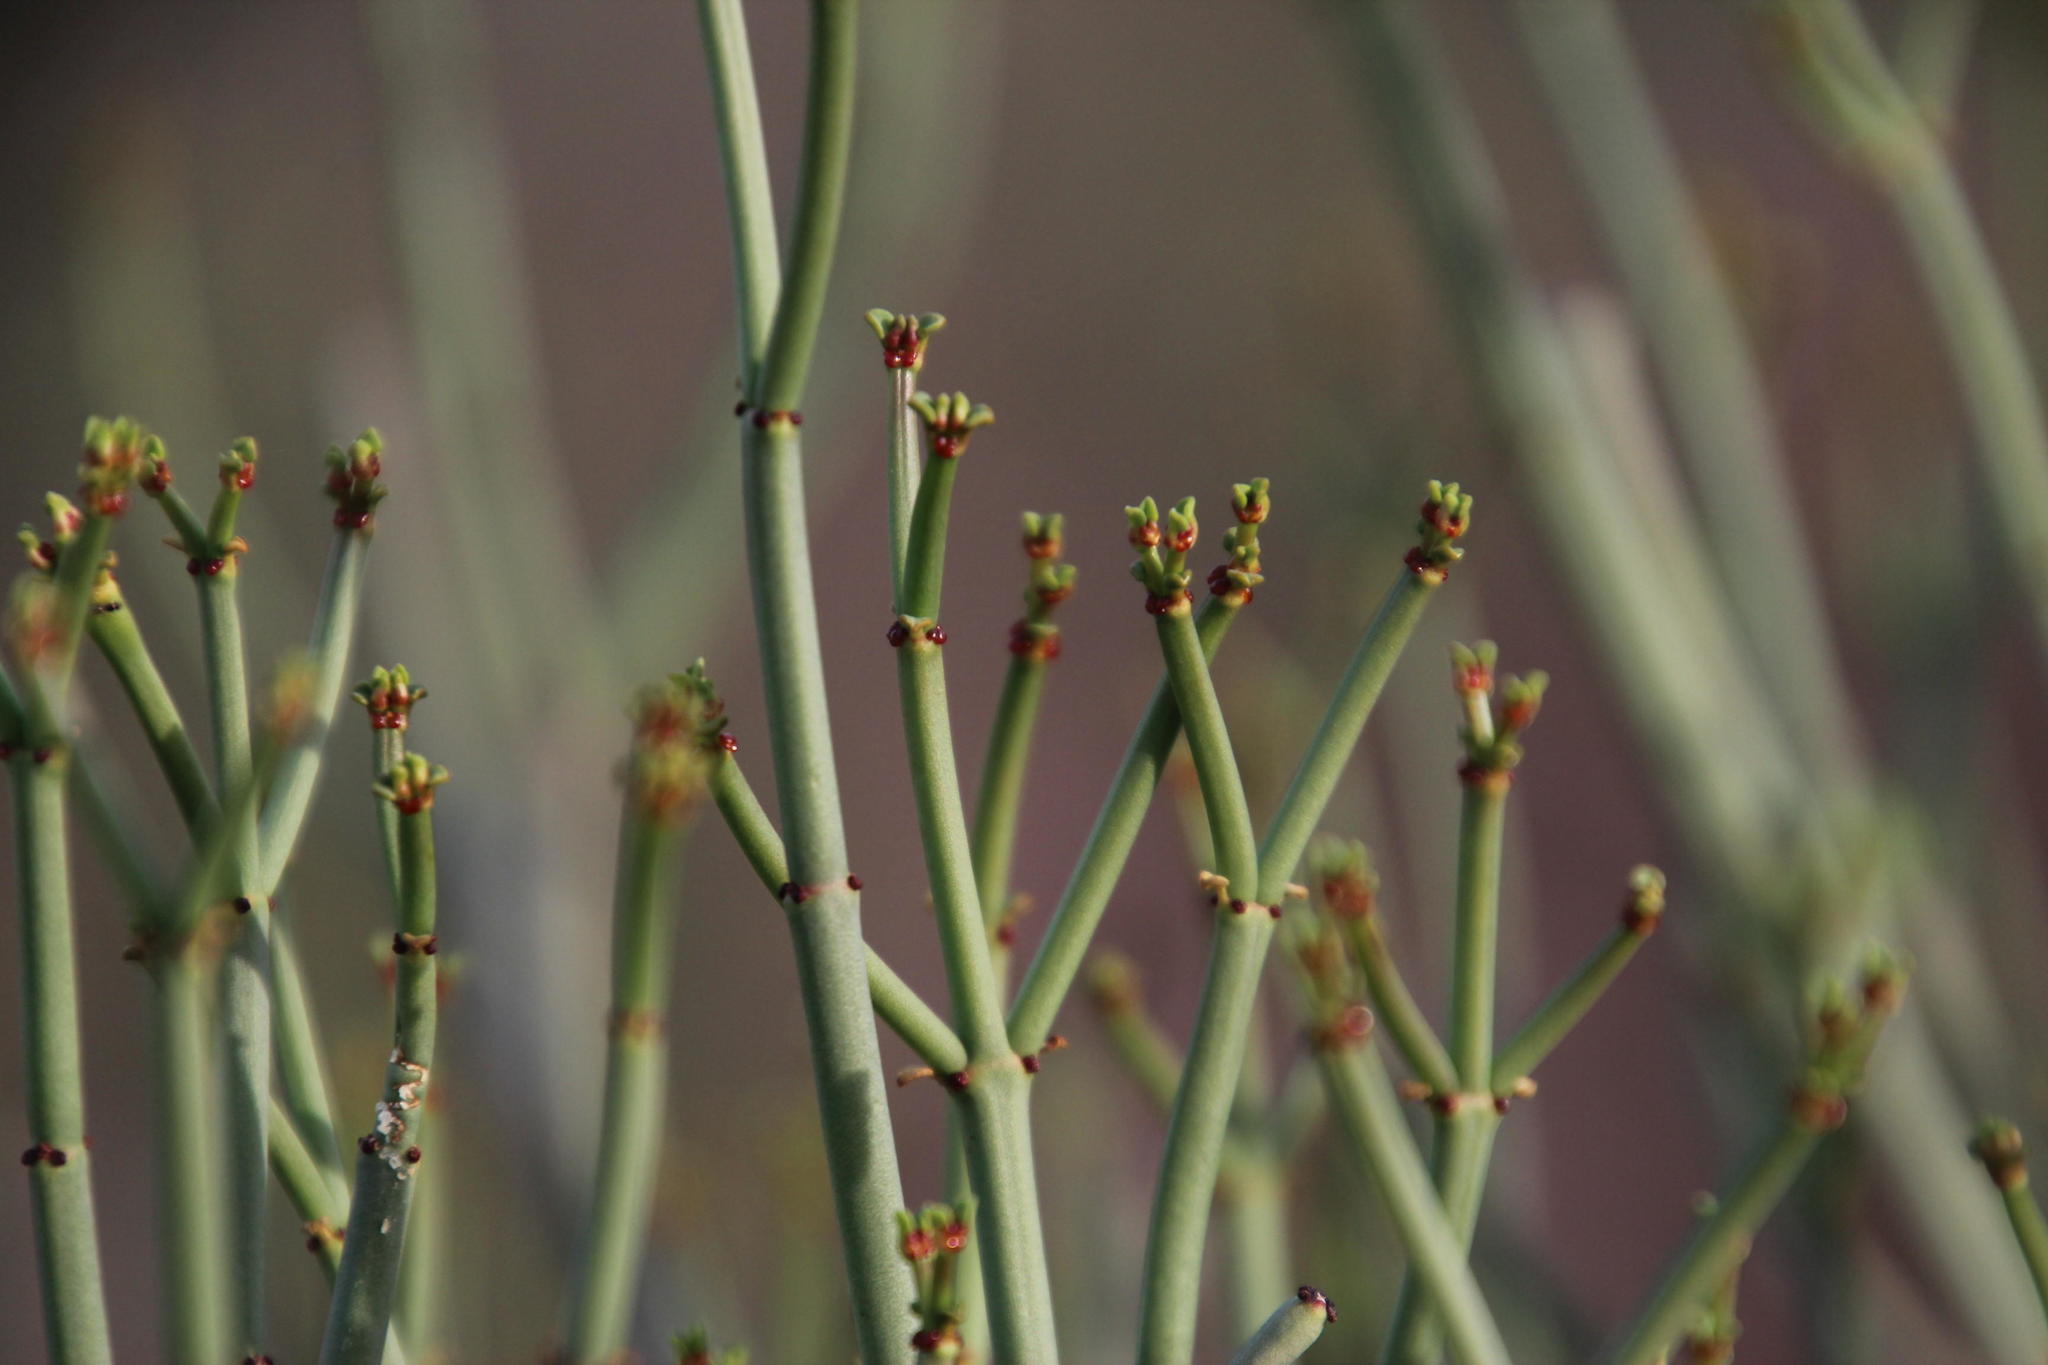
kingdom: Plantae
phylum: Tracheophyta
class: Magnoliopsida
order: Malpighiales
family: Euphorbiaceae
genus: Euphorbia
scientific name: Euphorbia burmanni
